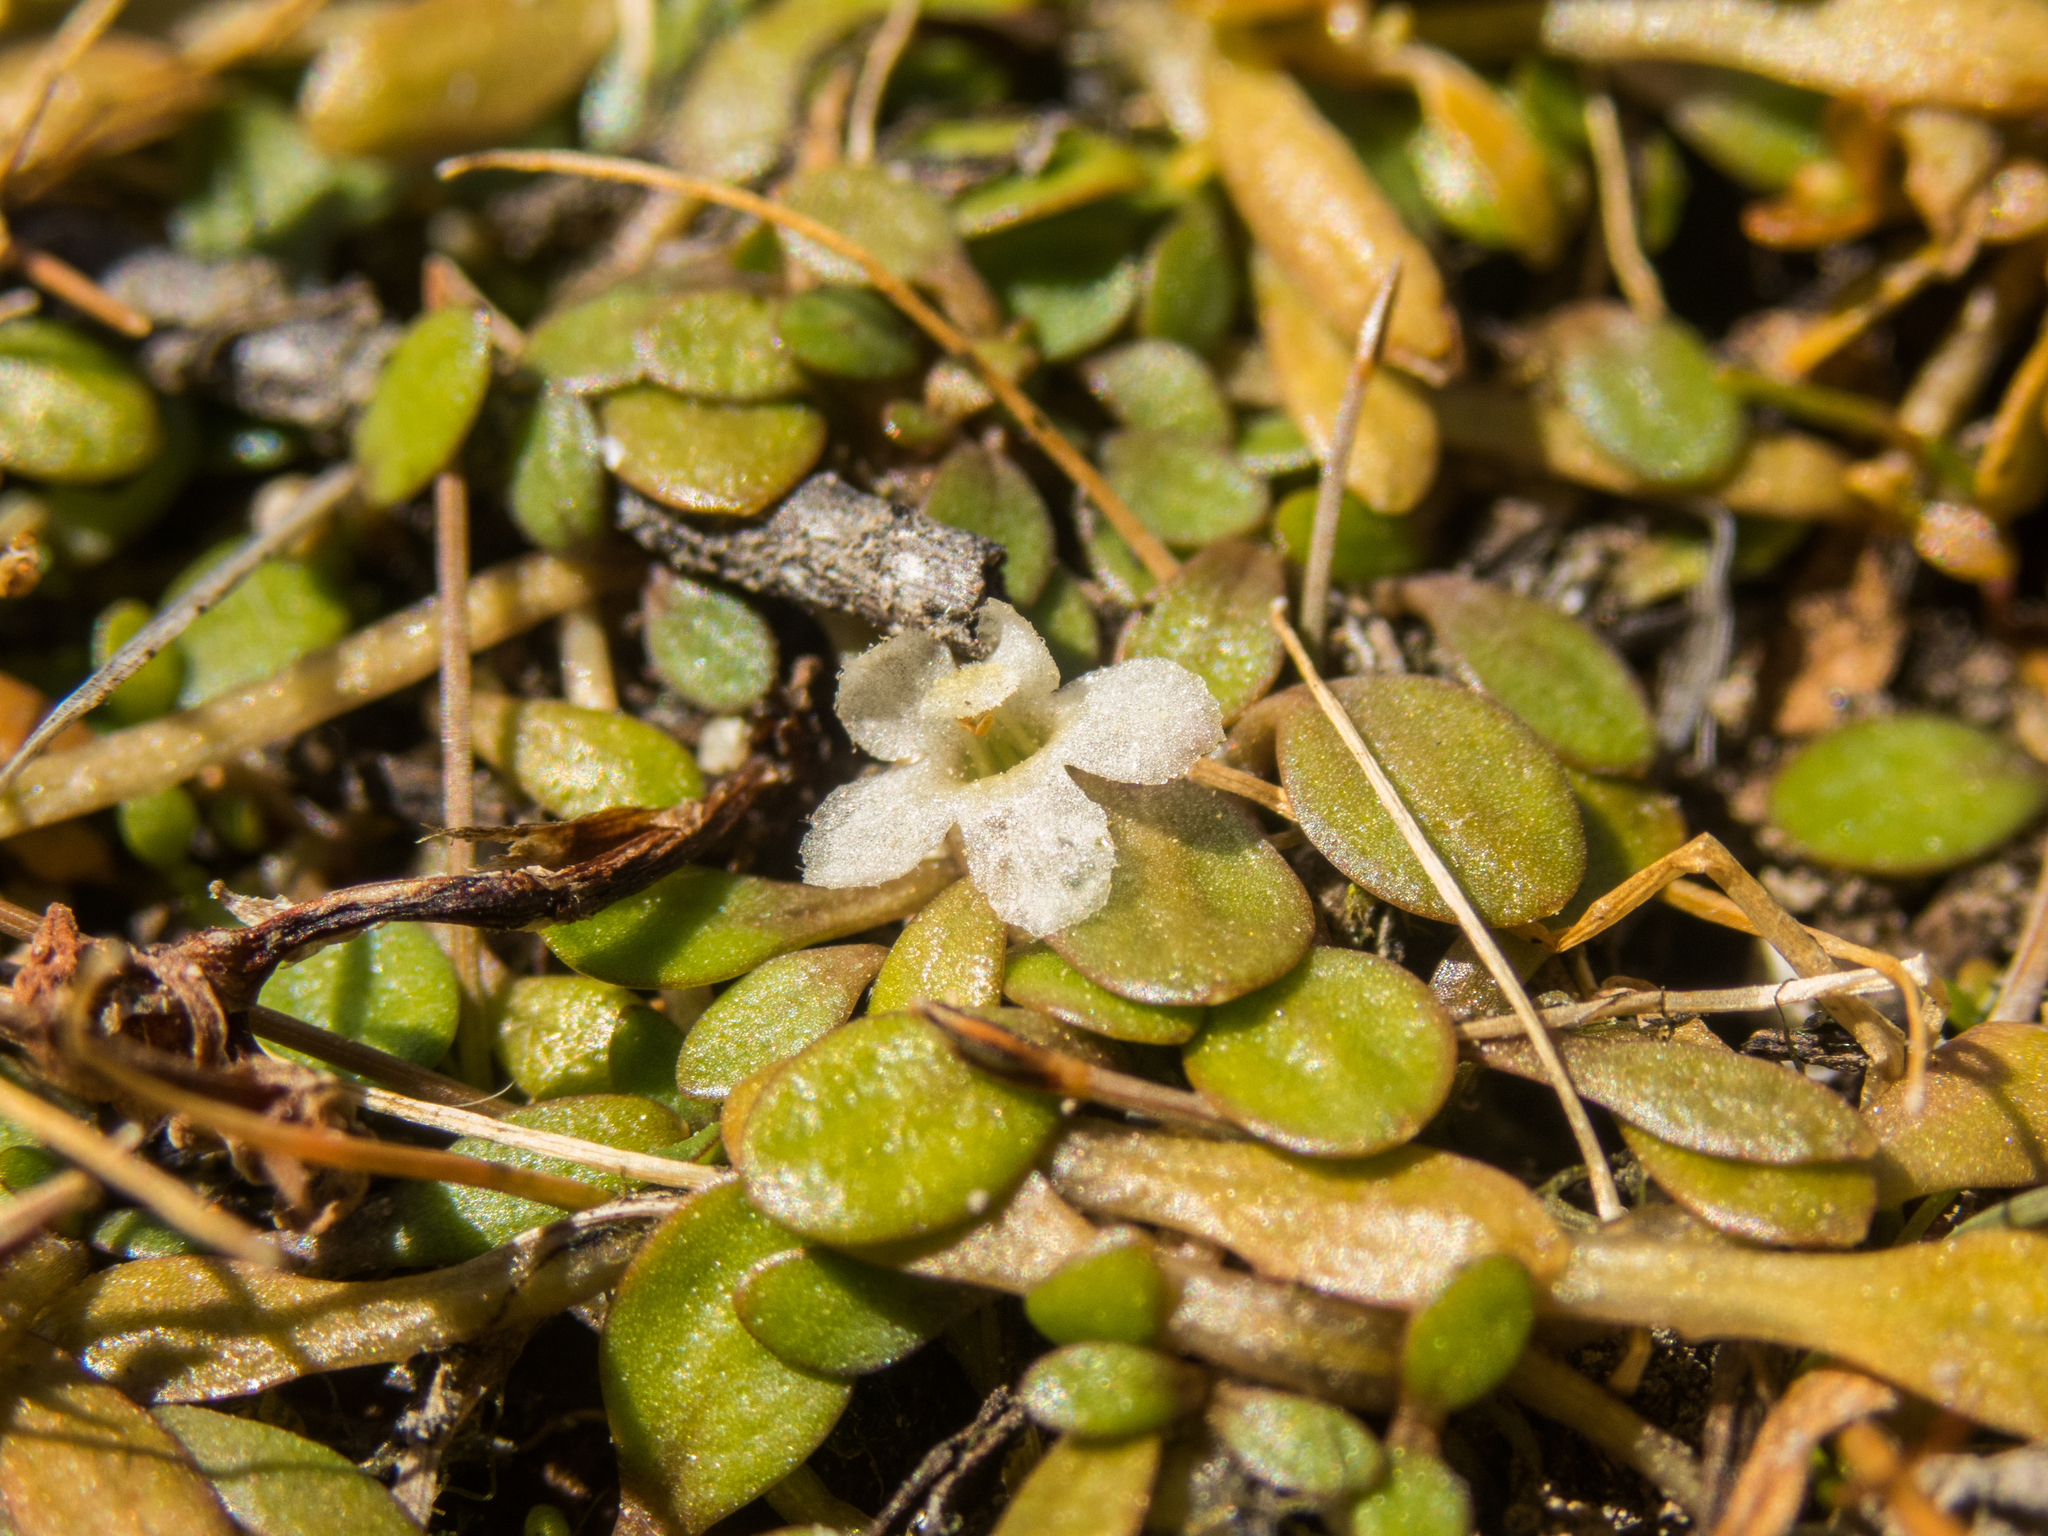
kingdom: Plantae
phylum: Tracheophyta
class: Magnoliopsida
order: Lamiales
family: Phrymaceae
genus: Glossostigma
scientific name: Glossostigma elatinoides
